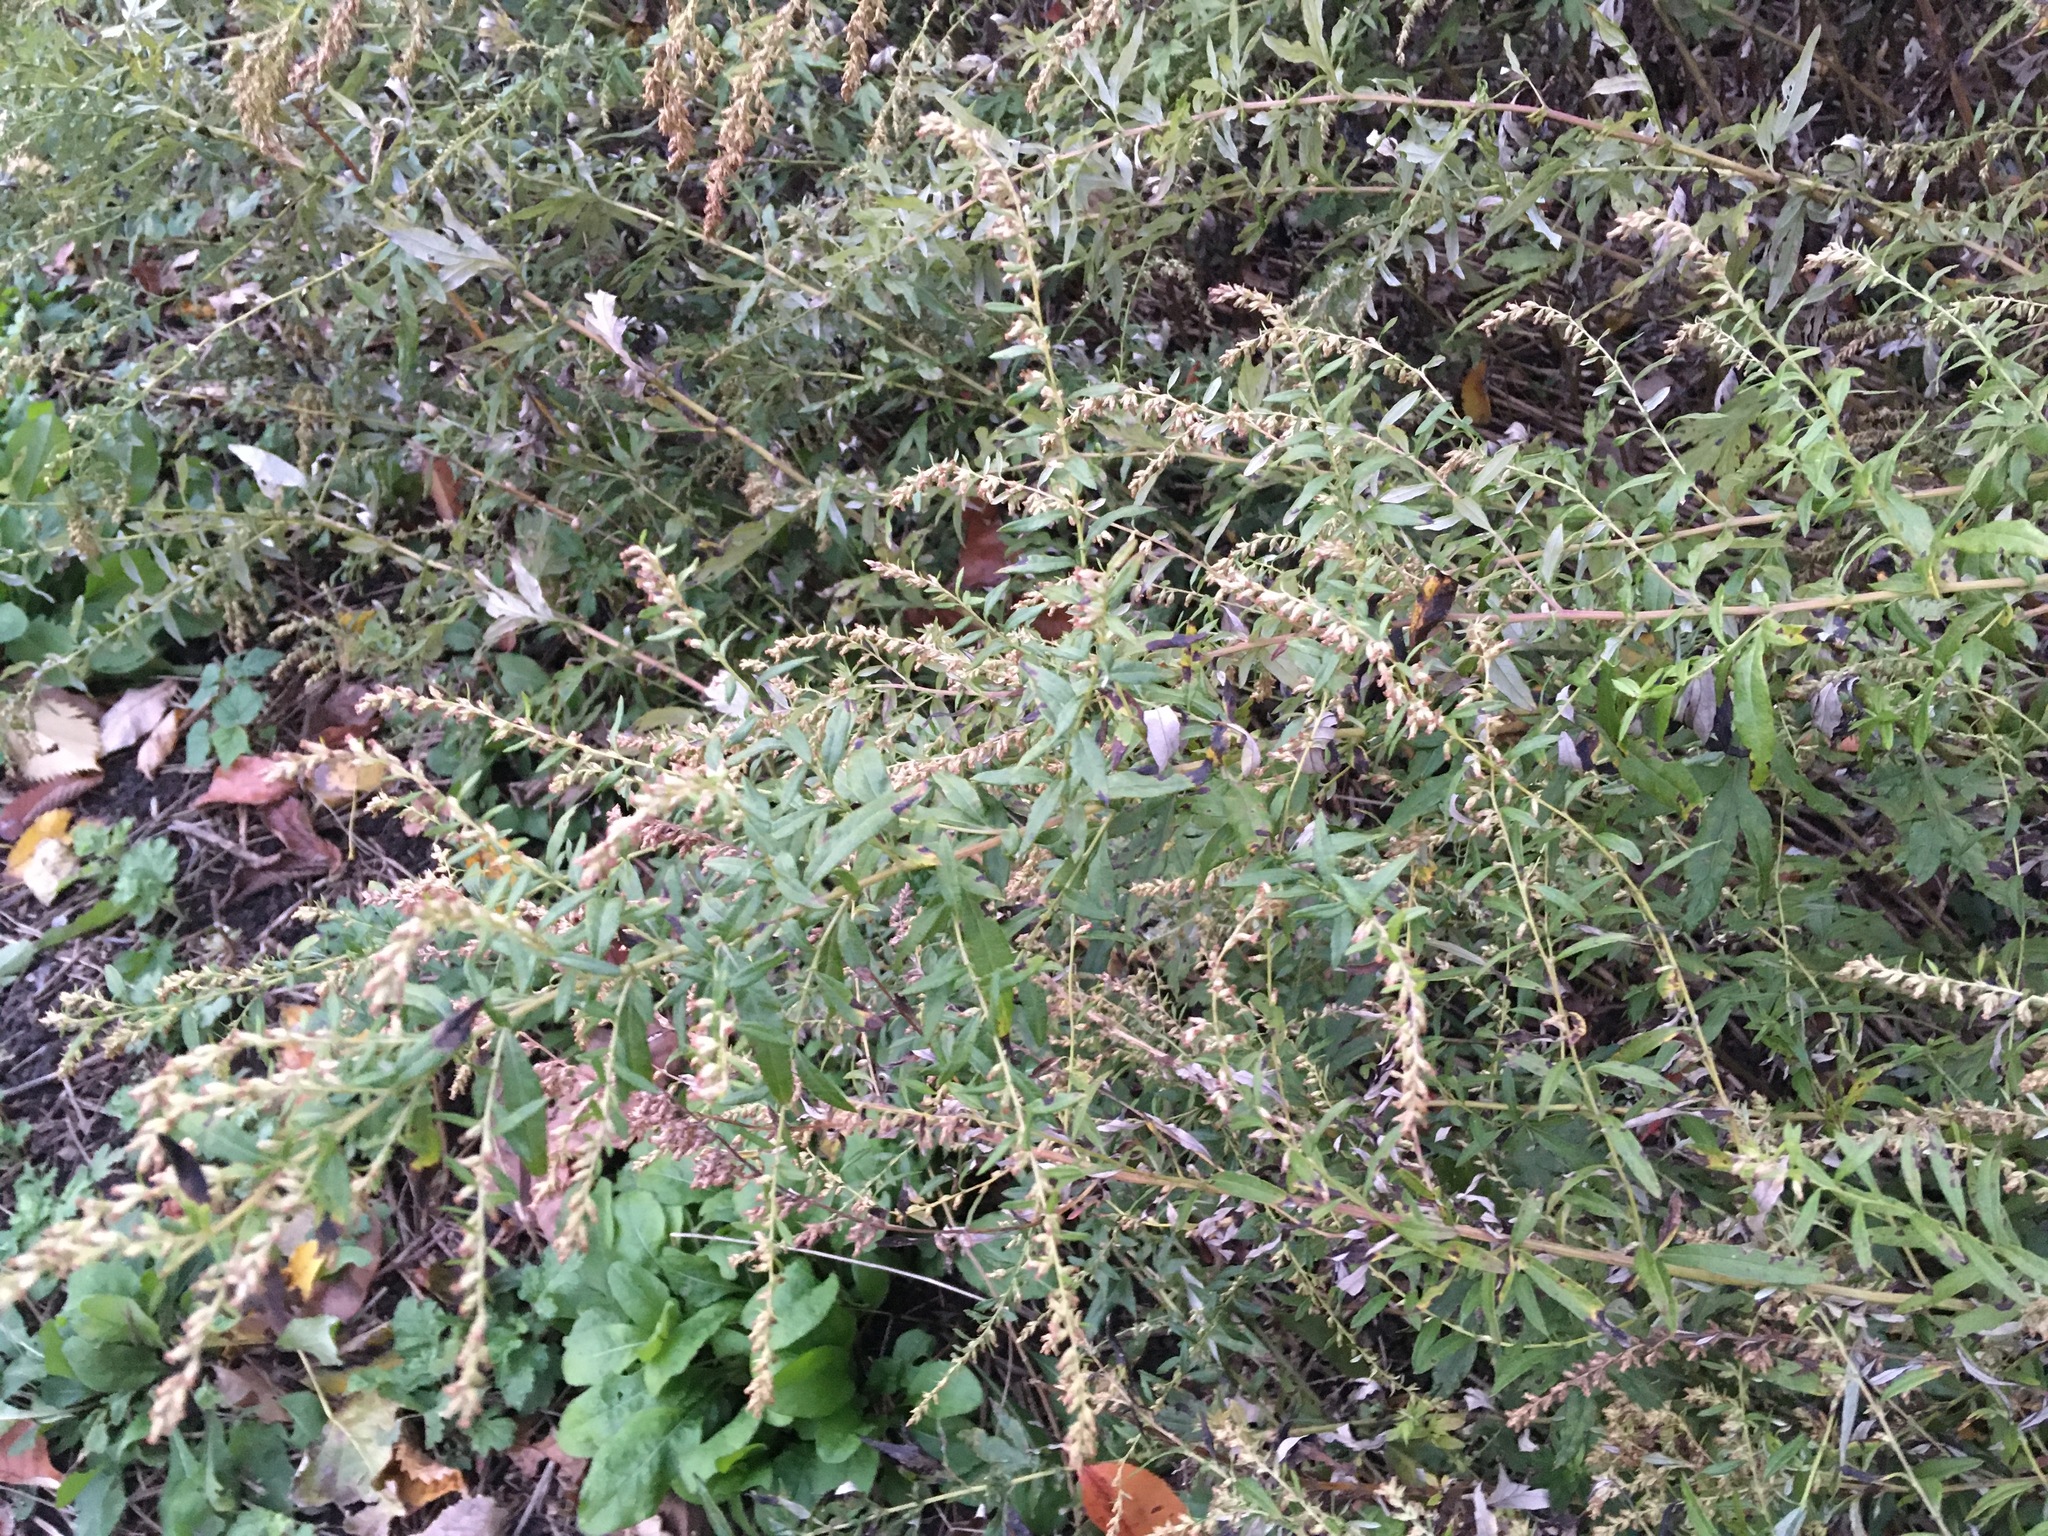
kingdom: Plantae
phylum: Tracheophyta
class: Magnoliopsida
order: Asterales
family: Asteraceae
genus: Artemisia
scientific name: Artemisia vulgaris
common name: Mugwort
